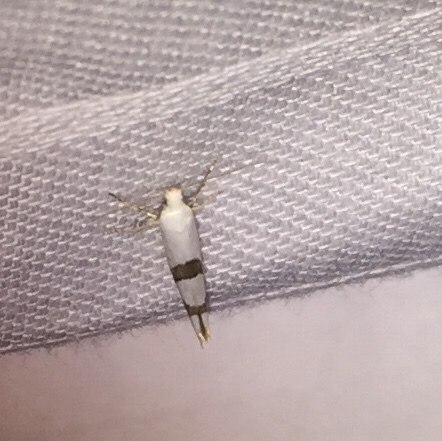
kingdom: Animalia
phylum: Arthropoda
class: Insecta
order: Lepidoptera
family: Argyresthiidae
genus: Argyresthia
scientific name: Argyresthia oreasella
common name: Cherry shoot borer moth
